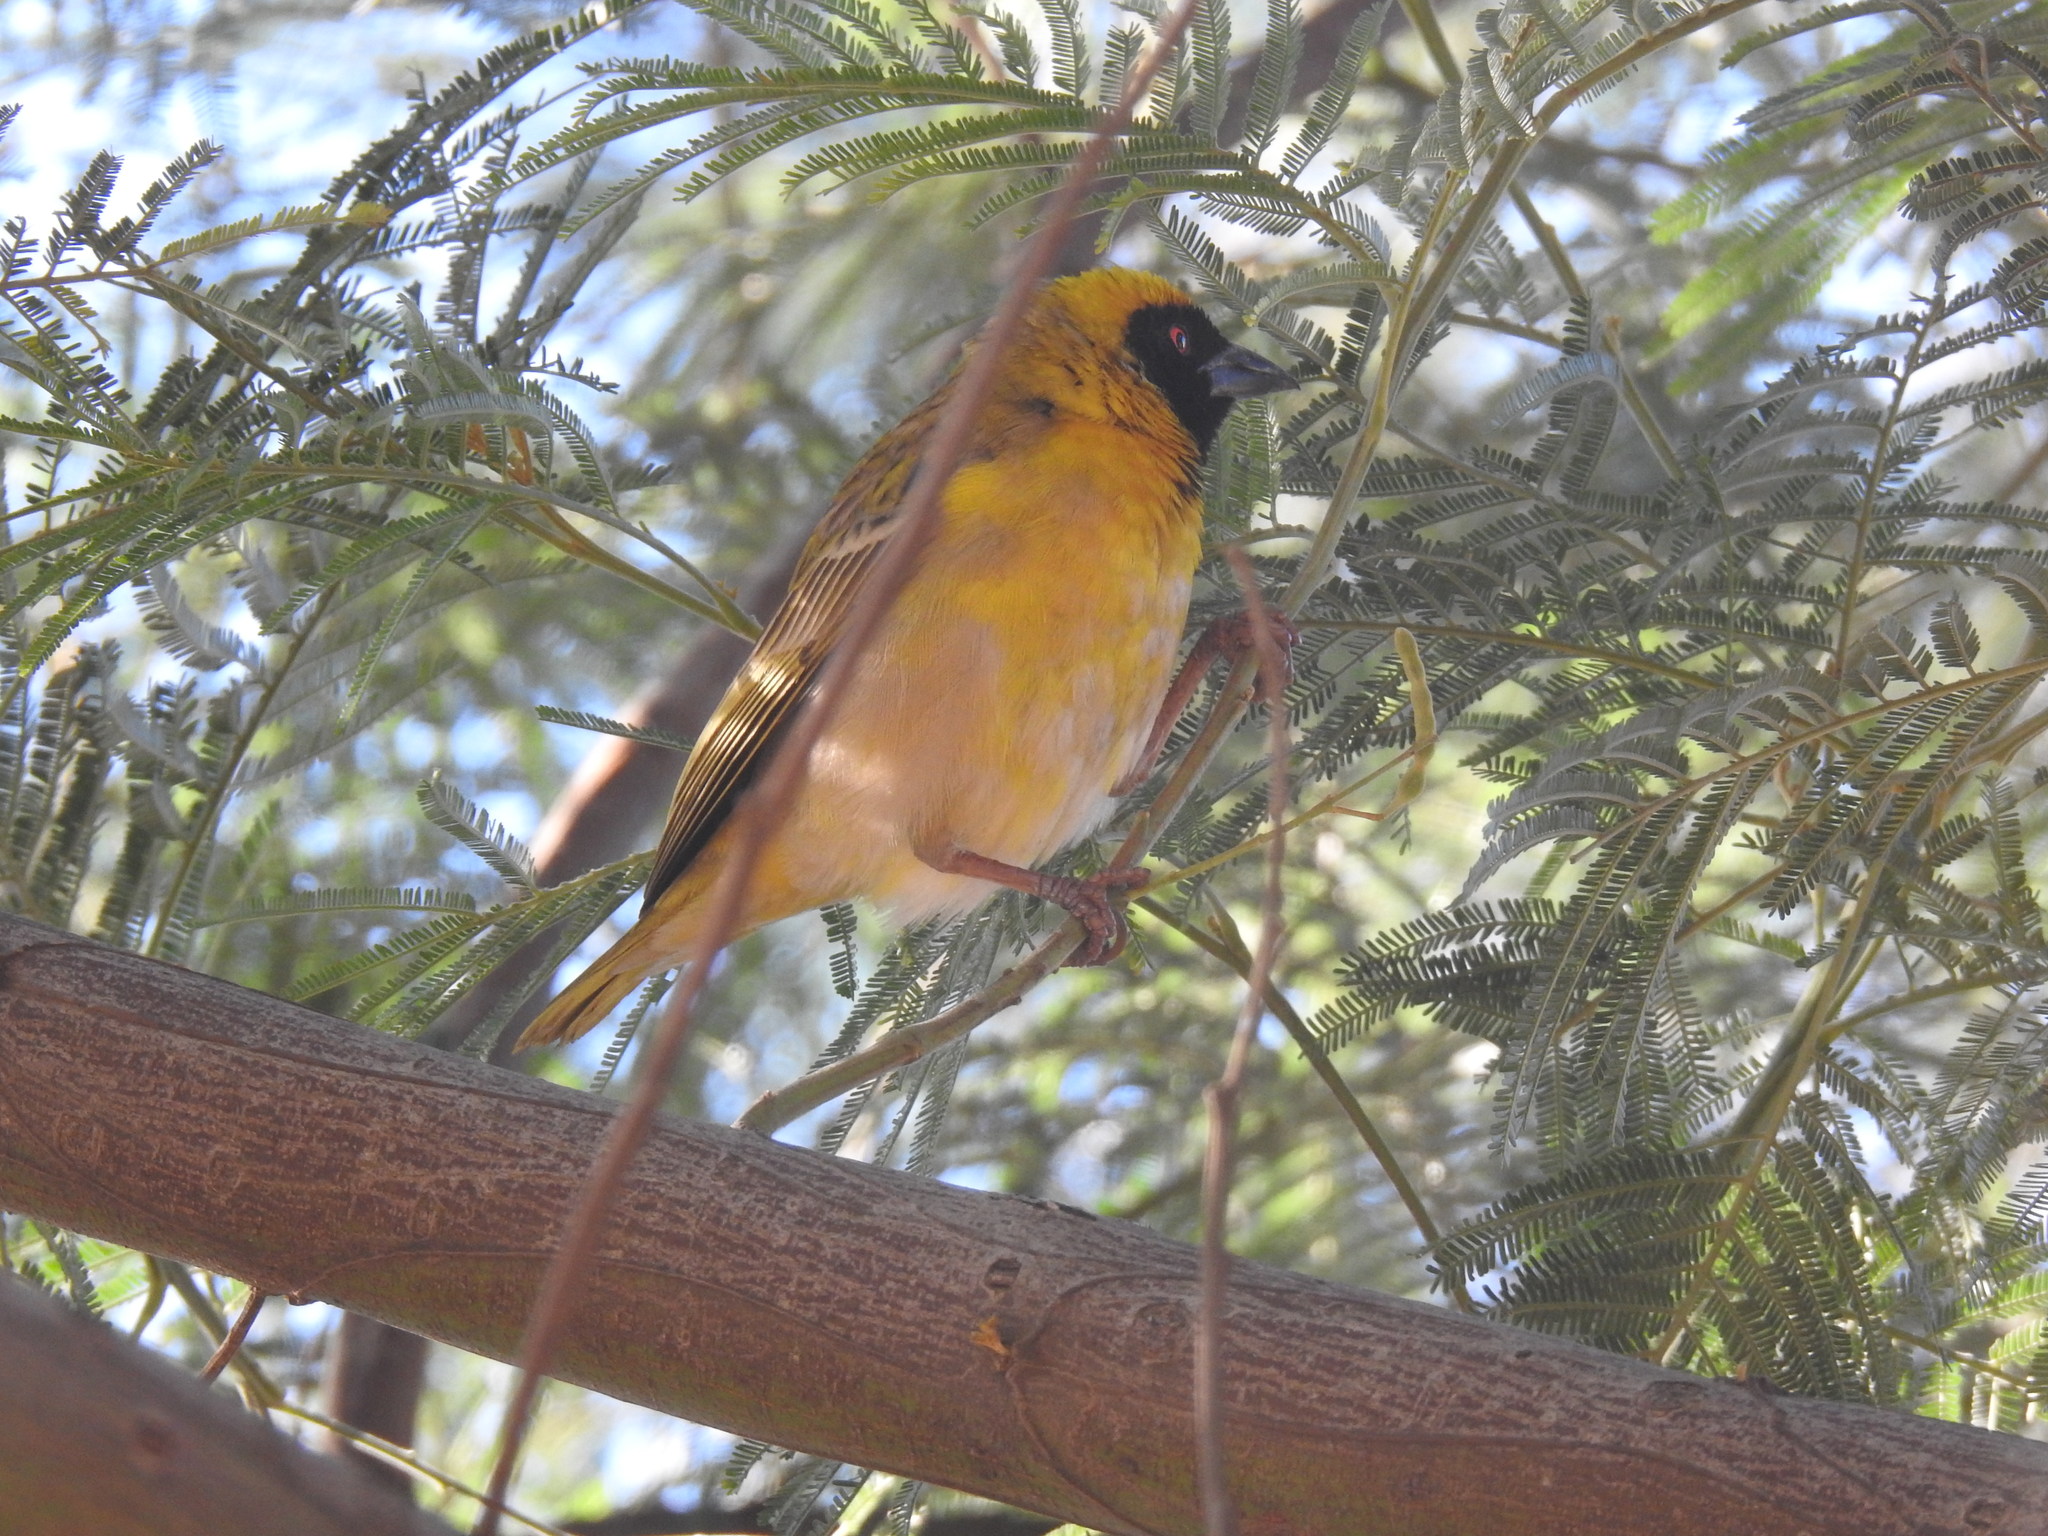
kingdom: Animalia
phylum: Chordata
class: Aves
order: Passeriformes
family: Ploceidae
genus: Ploceus
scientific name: Ploceus velatus
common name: Southern masked weaver
